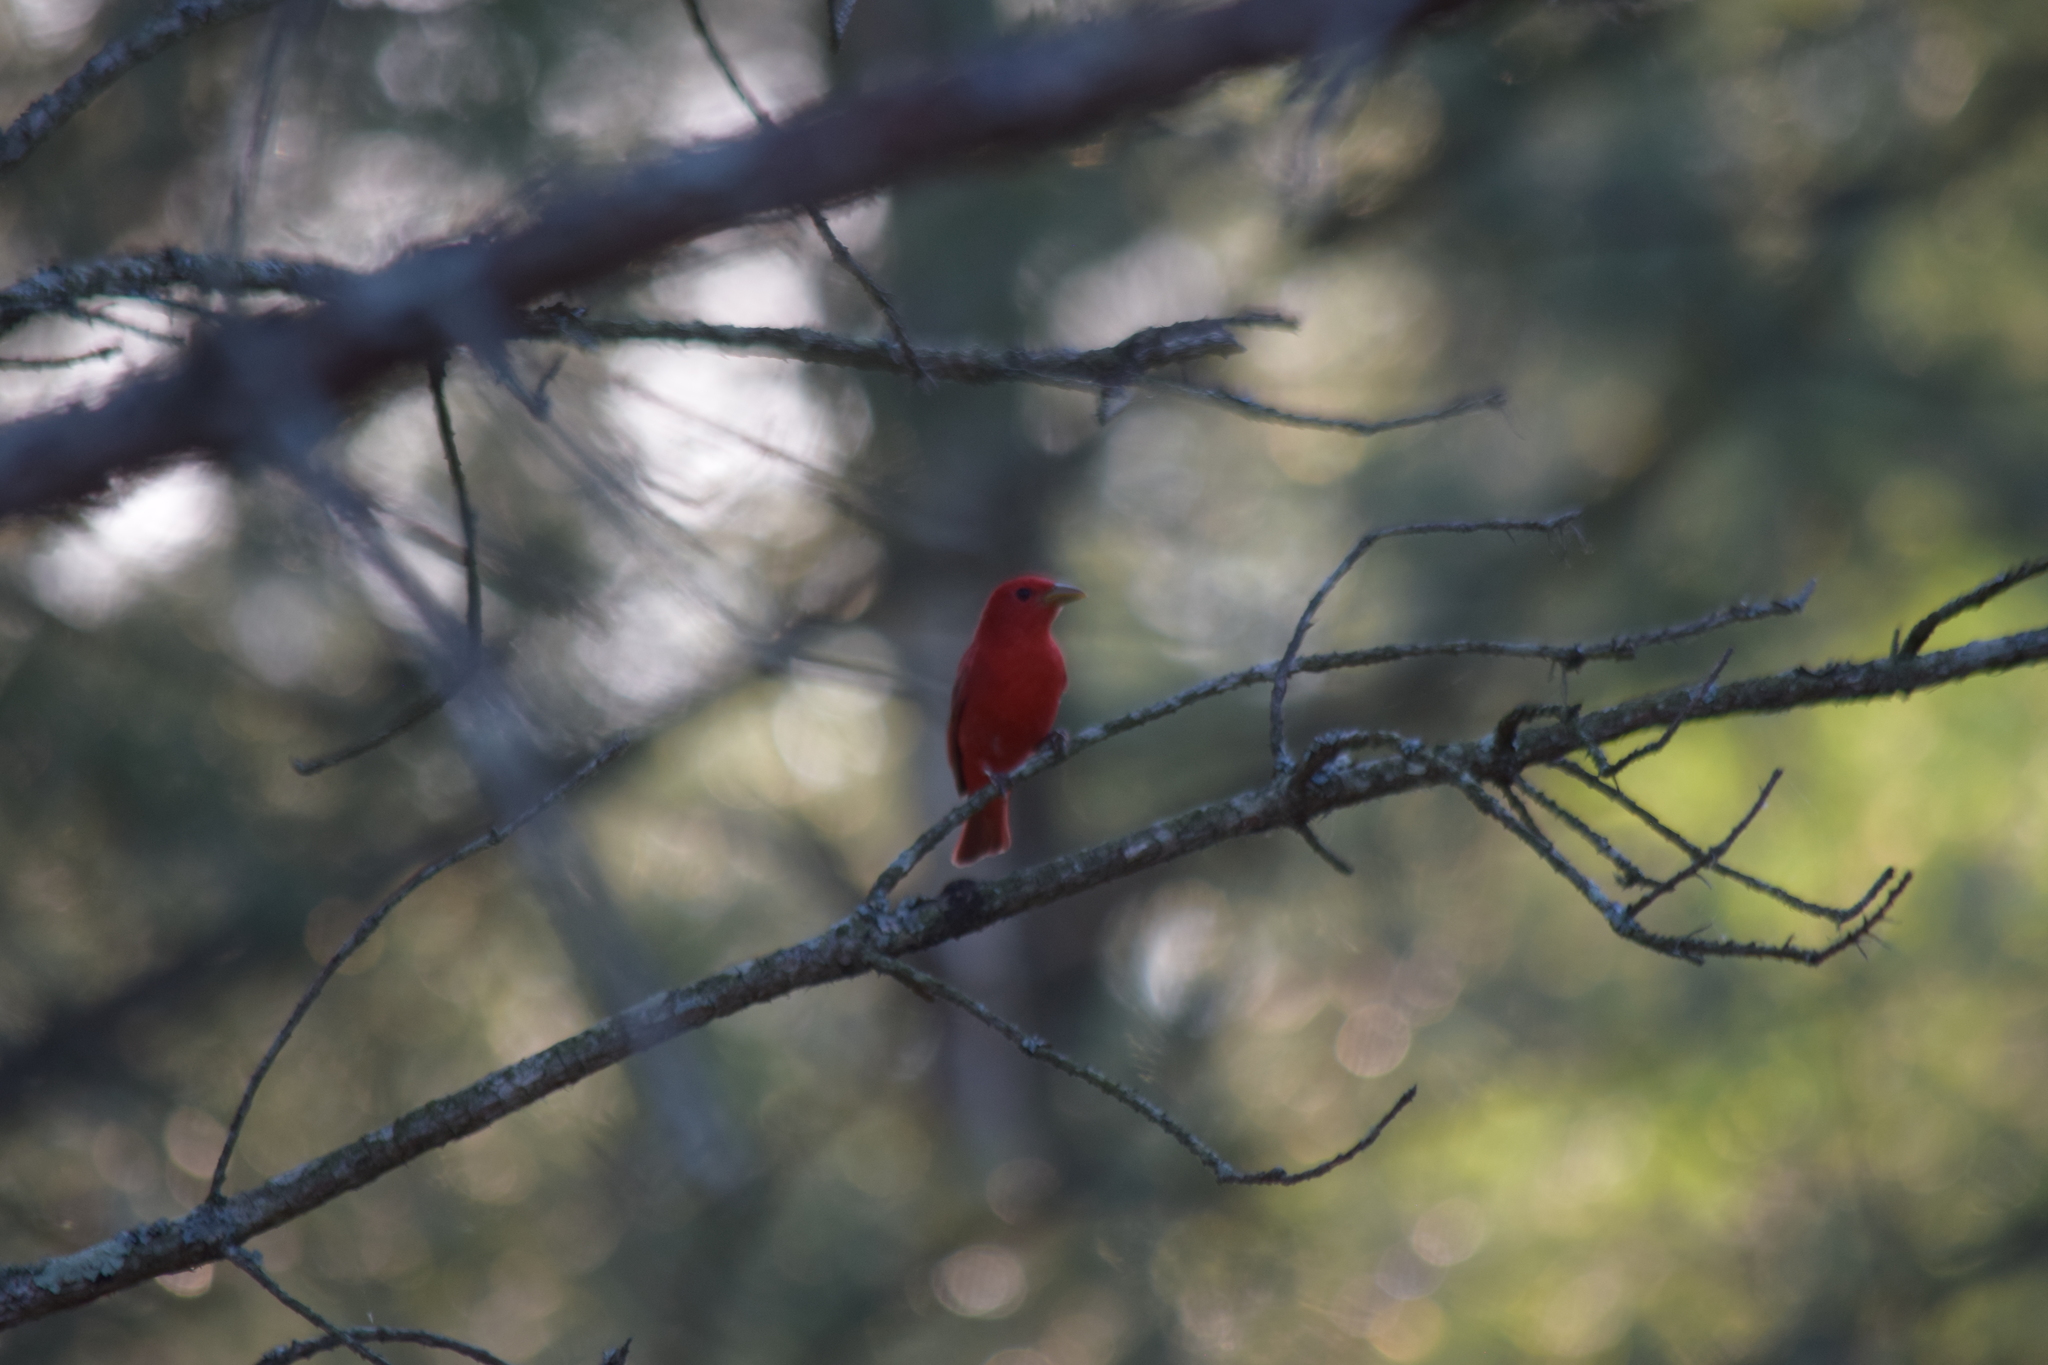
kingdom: Animalia
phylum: Chordata
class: Aves
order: Passeriformes
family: Cardinalidae
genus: Piranga
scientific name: Piranga rubra
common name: Summer tanager
